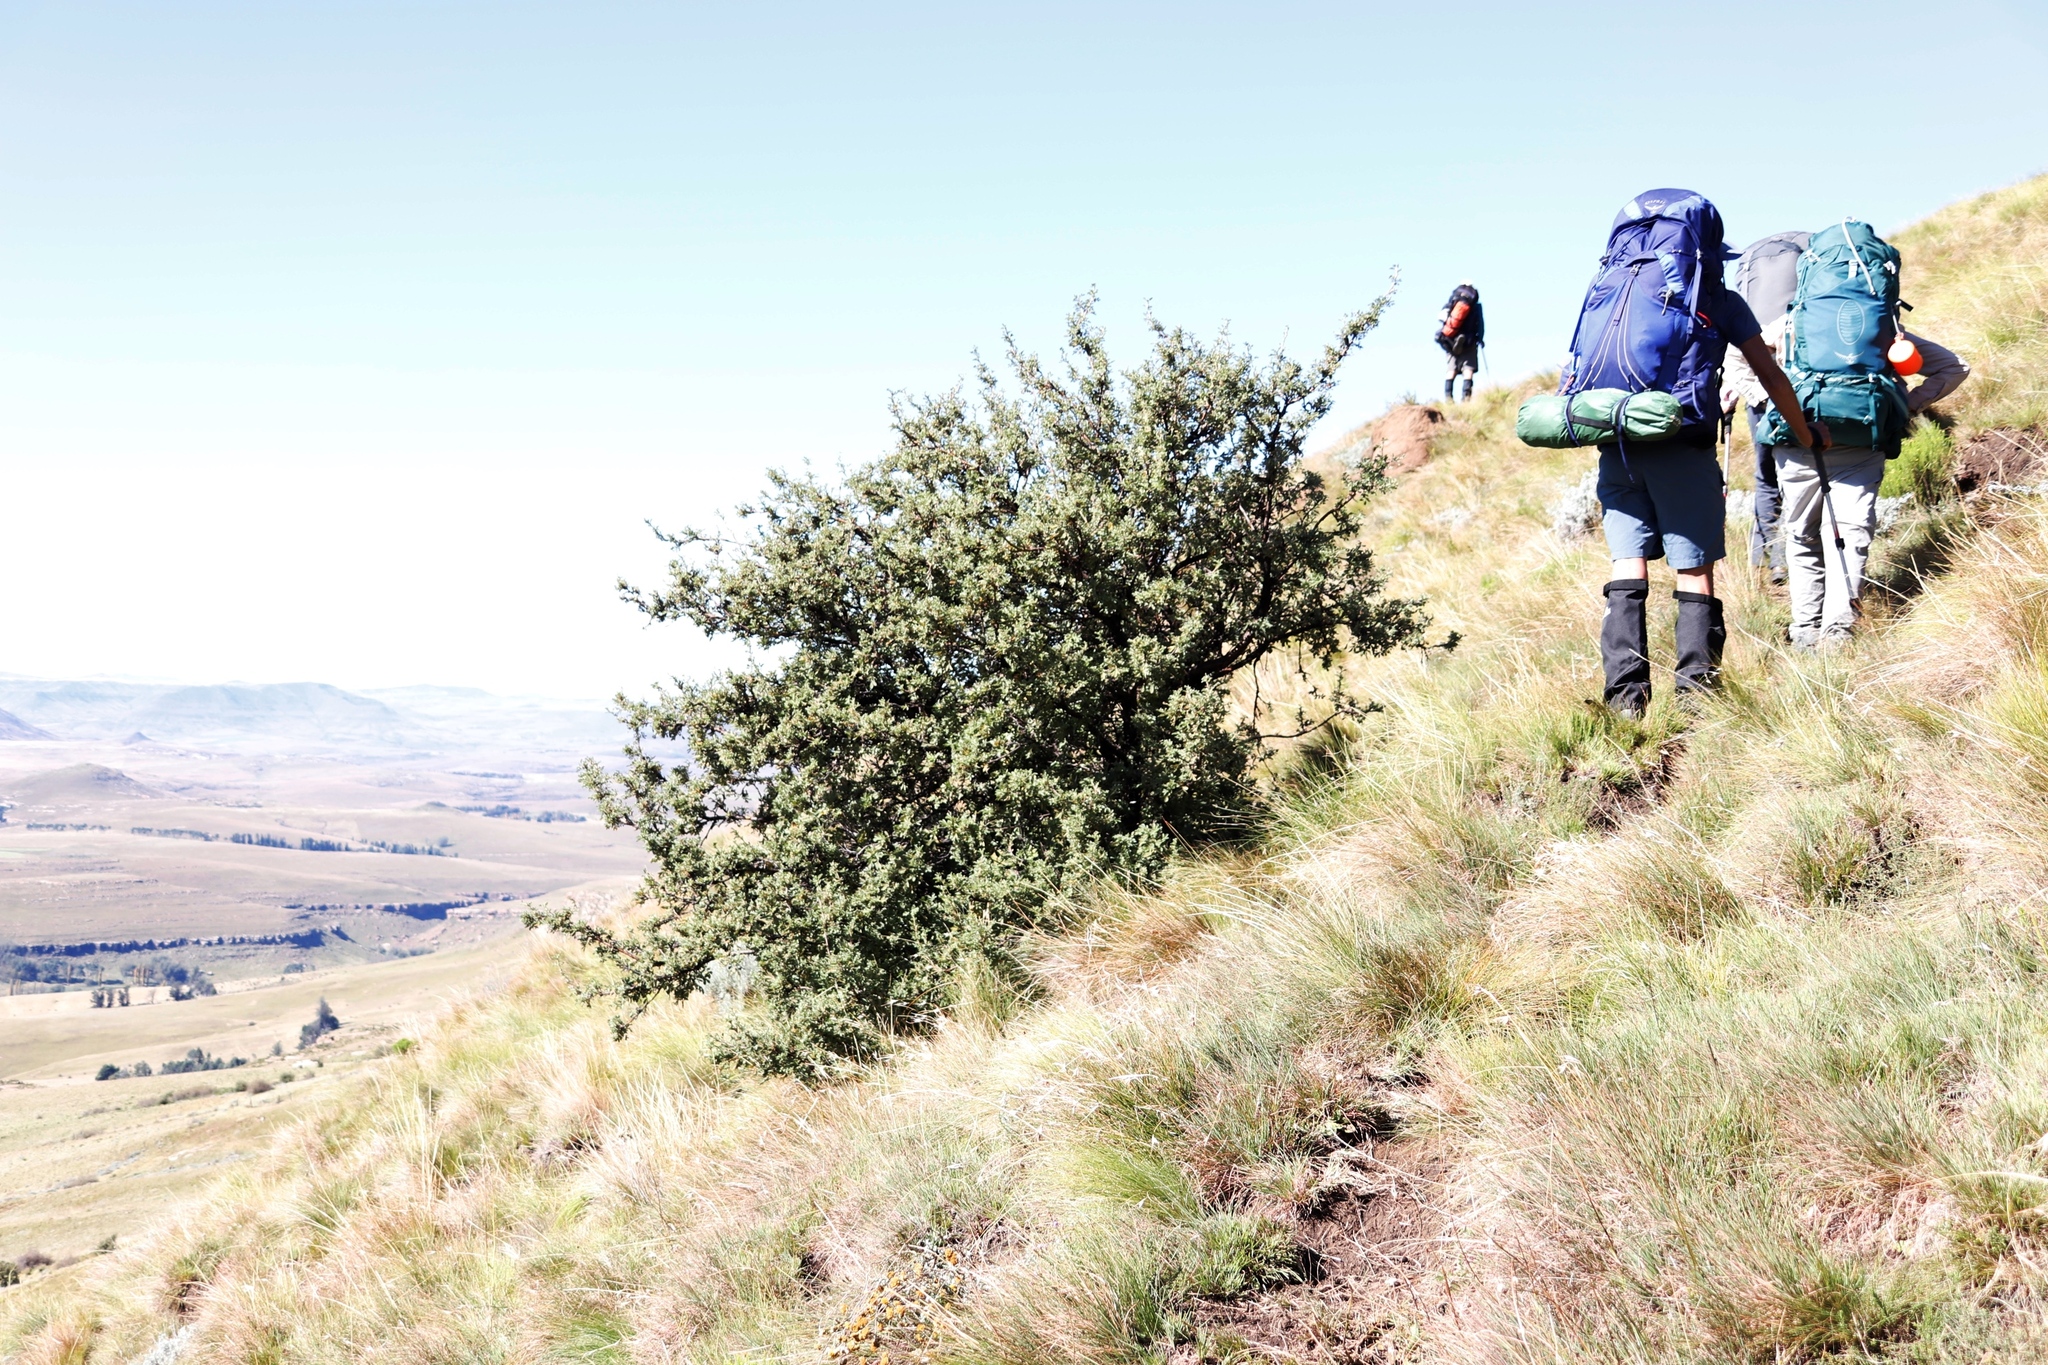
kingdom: Plantae
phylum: Tracheophyta
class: Magnoliopsida
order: Rosales
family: Rosaceae
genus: Leucosidea
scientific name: Leucosidea sericea
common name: Oldwood
